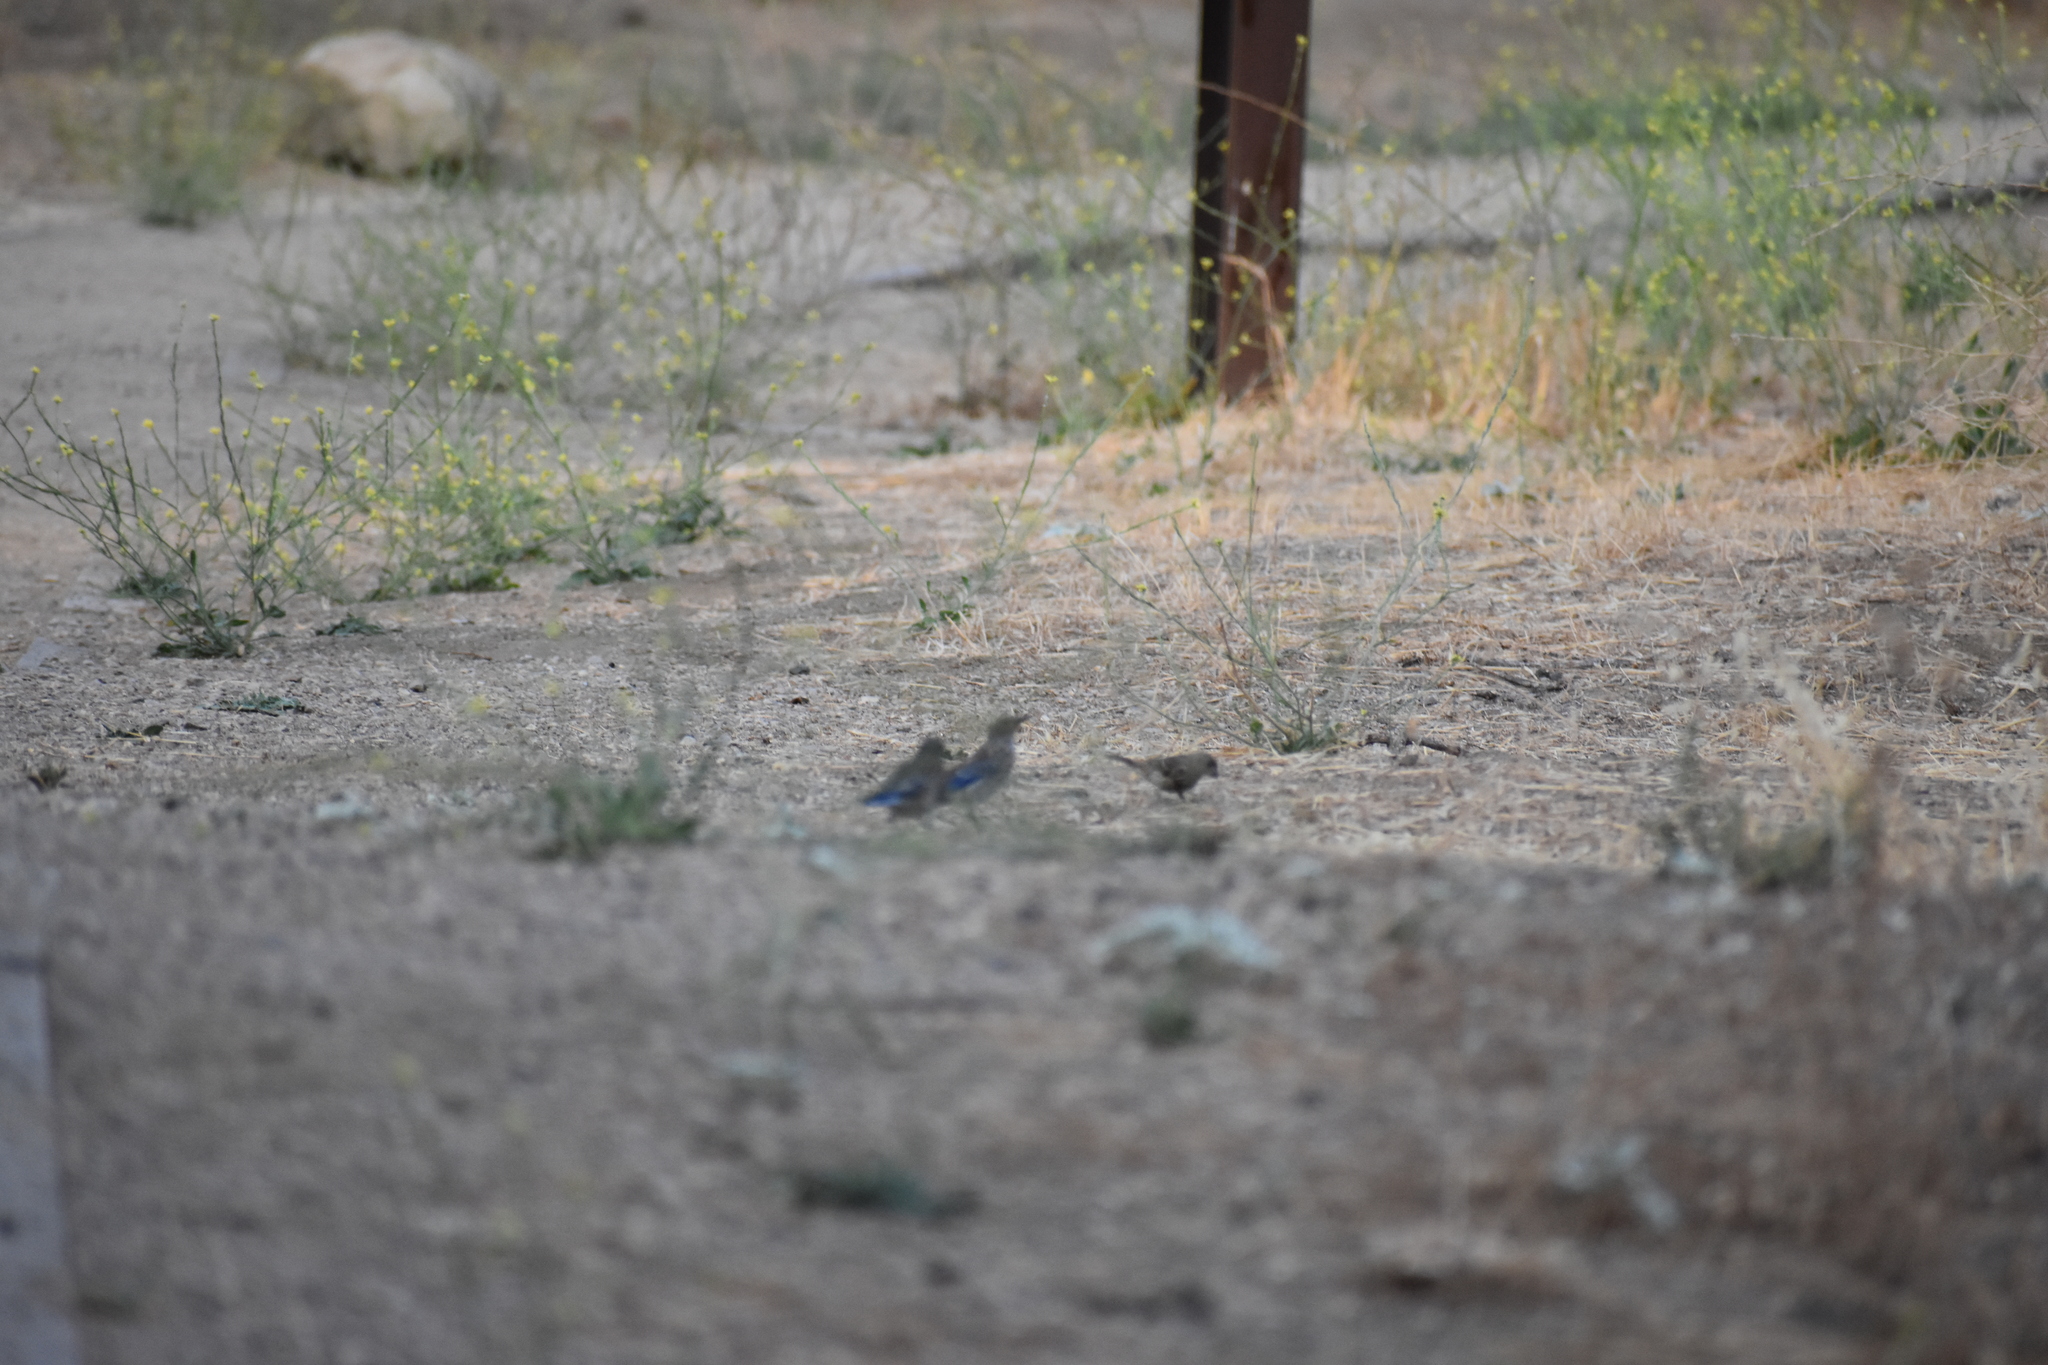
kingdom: Animalia
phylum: Chordata
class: Aves
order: Passeriformes
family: Fringillidae
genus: Haemorhous
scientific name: Haemorhous mexicanus
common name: House finch
